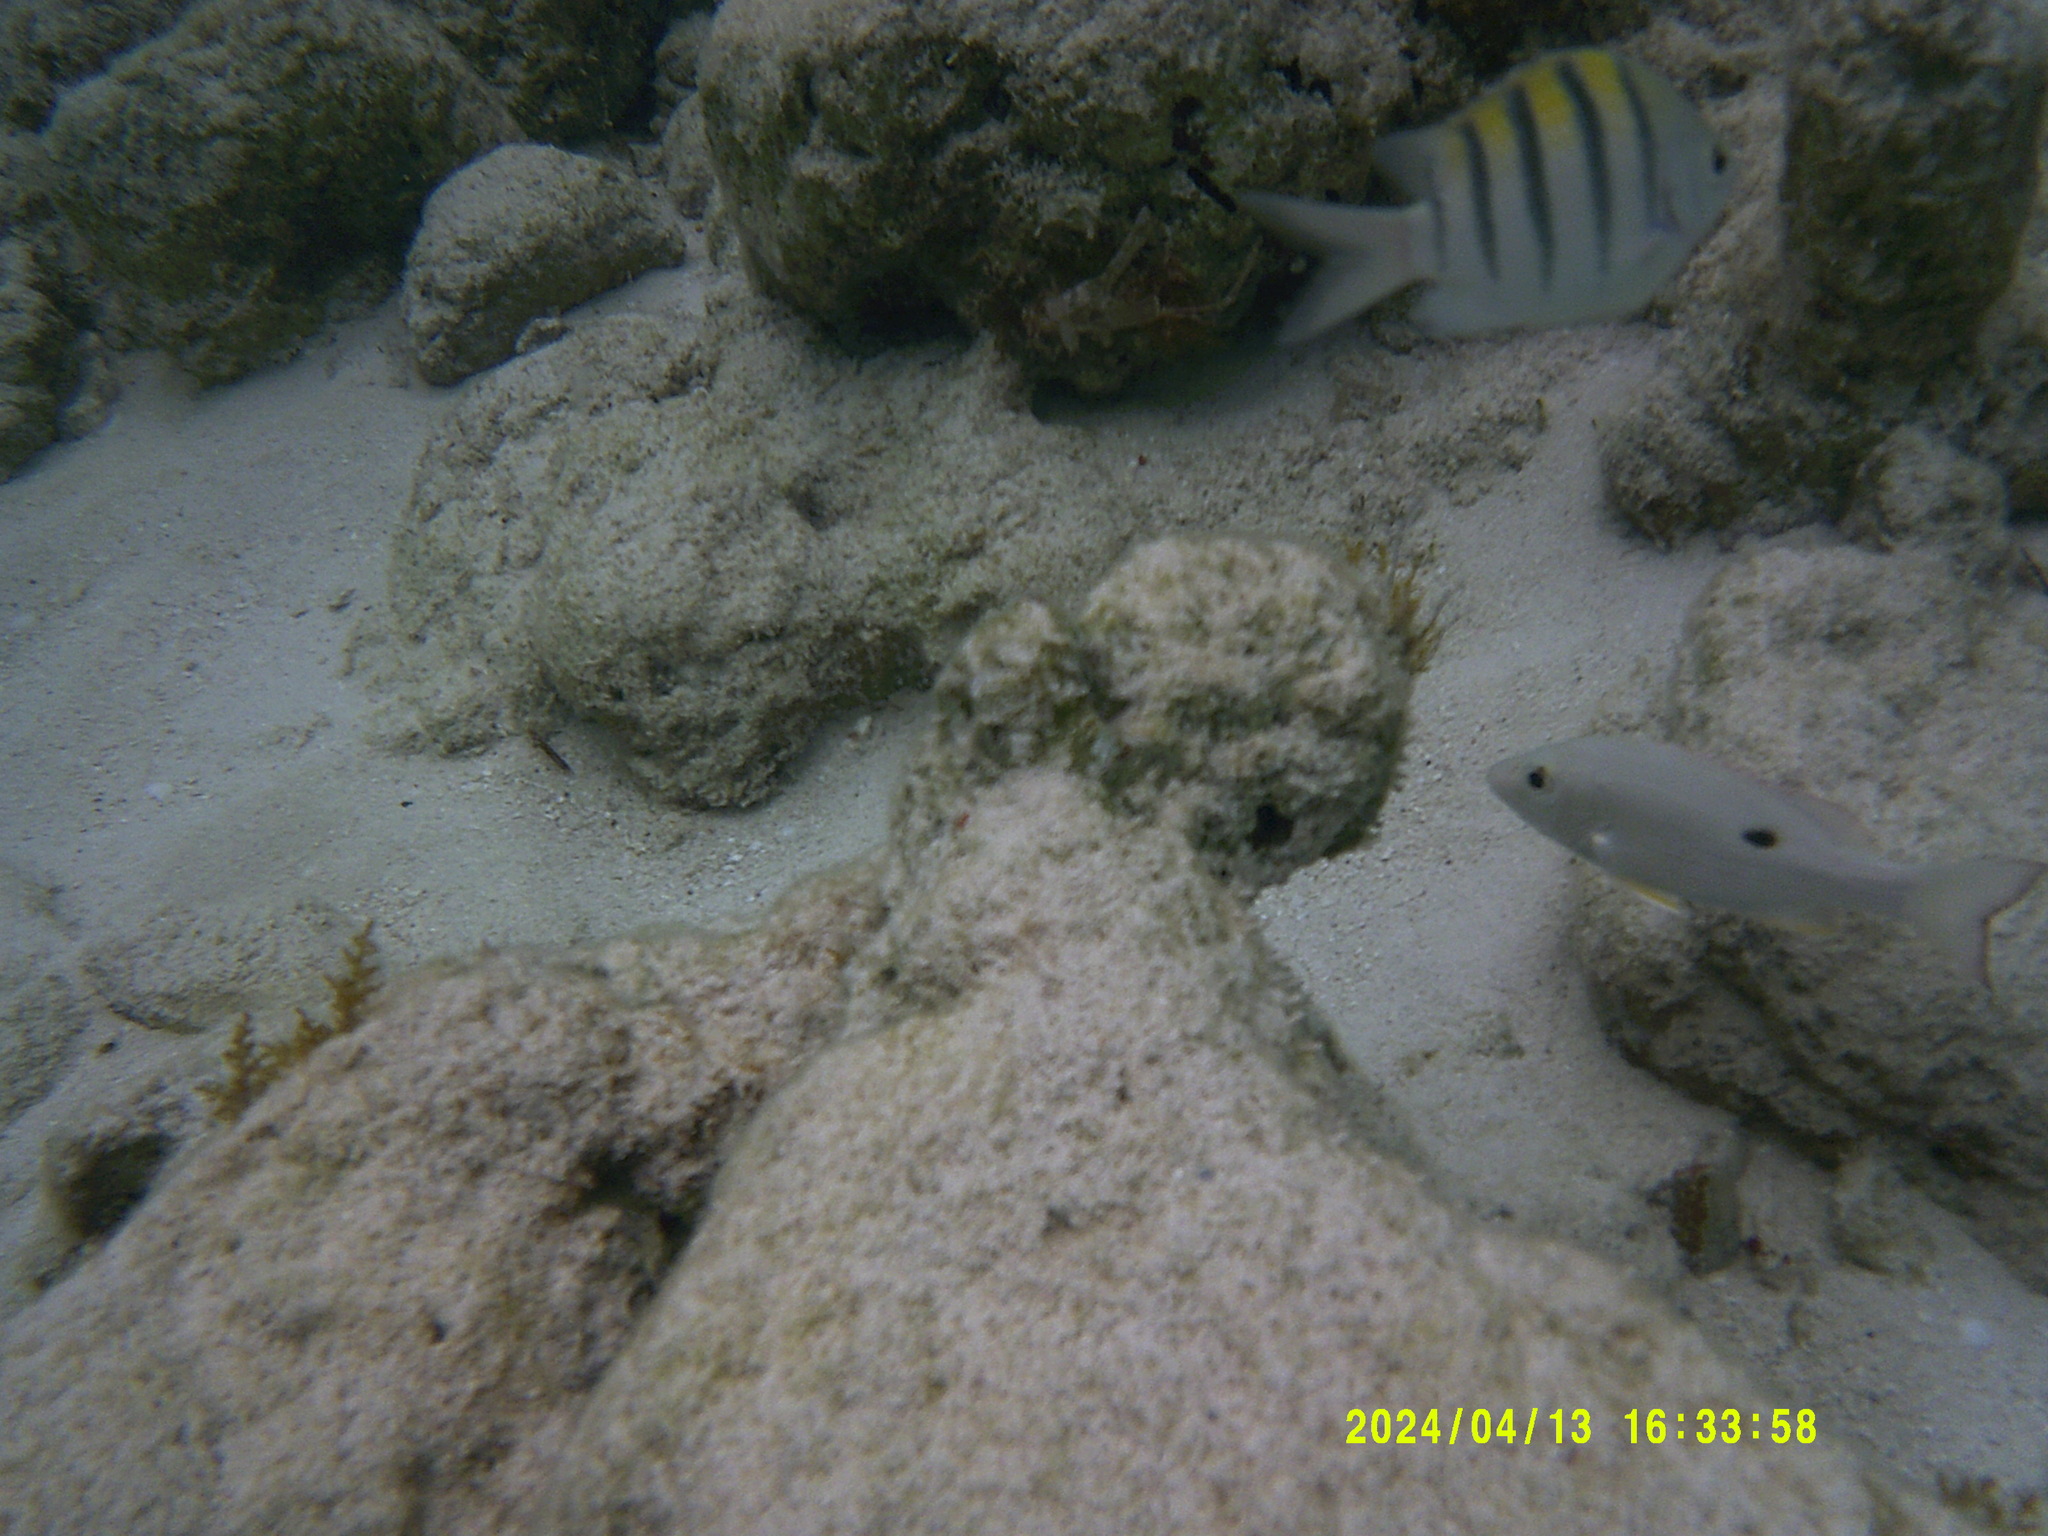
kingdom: Animalia
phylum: Chordata
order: Perciformes
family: Pomacentridae
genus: Abudefduf
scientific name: Abudefduf saxatilis
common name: Sergeant major
